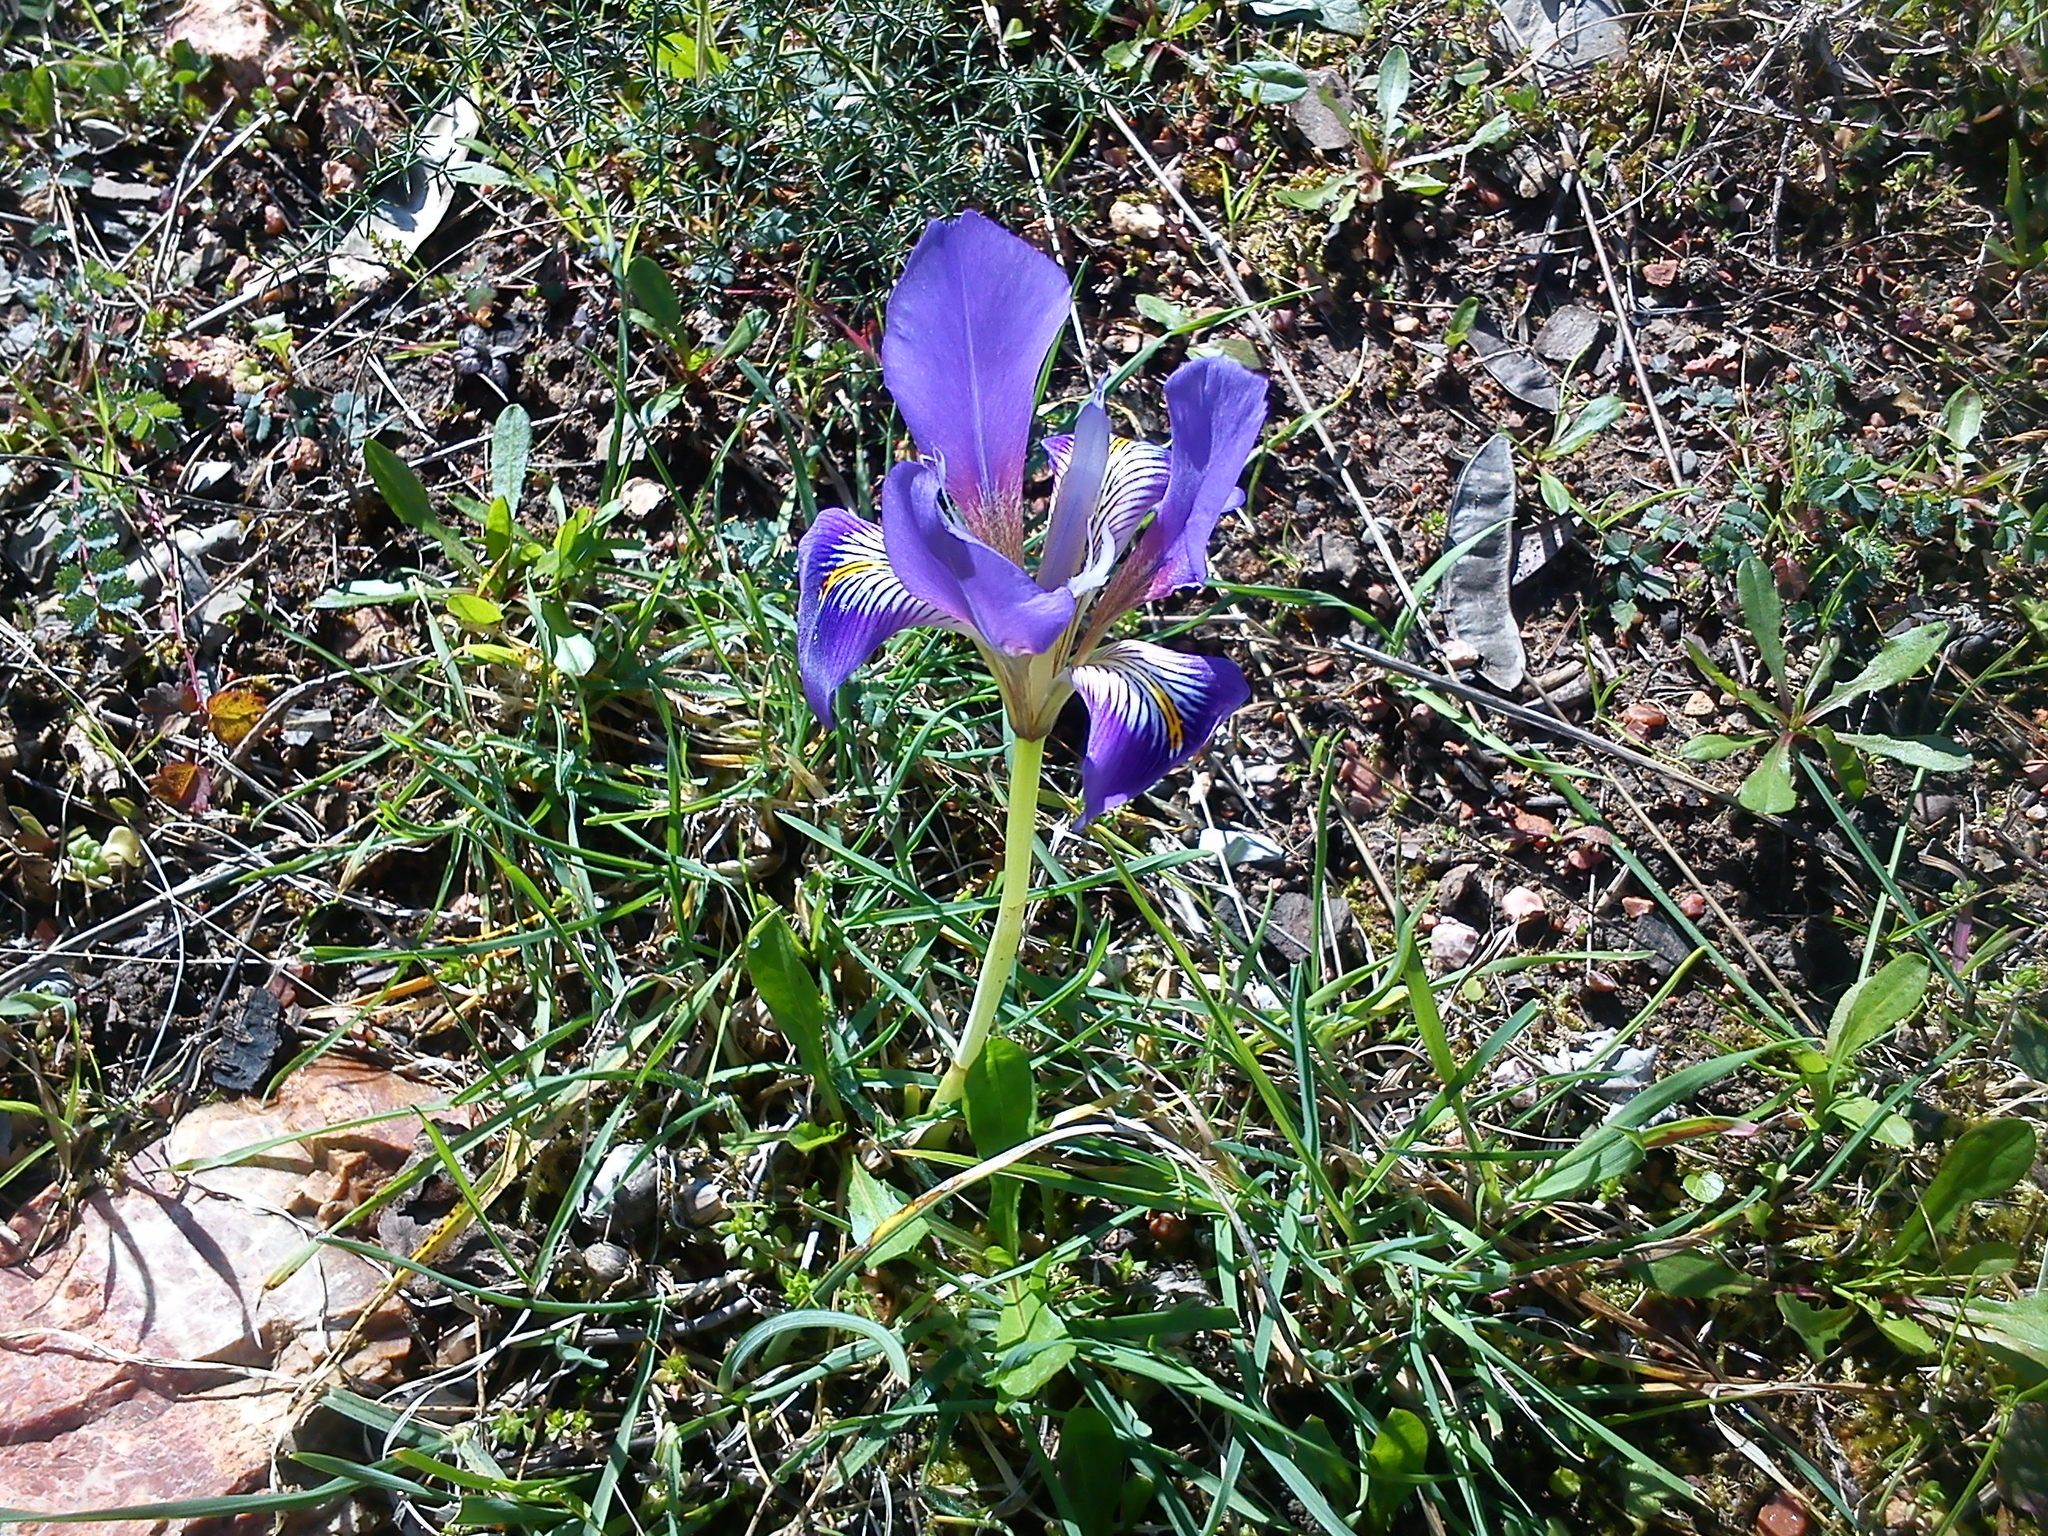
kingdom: Plantae
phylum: Tracheophyta
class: Liliopsida
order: Asparagales
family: Iridaceae
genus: Iris
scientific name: Iris unguicularis
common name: Algerian iris
